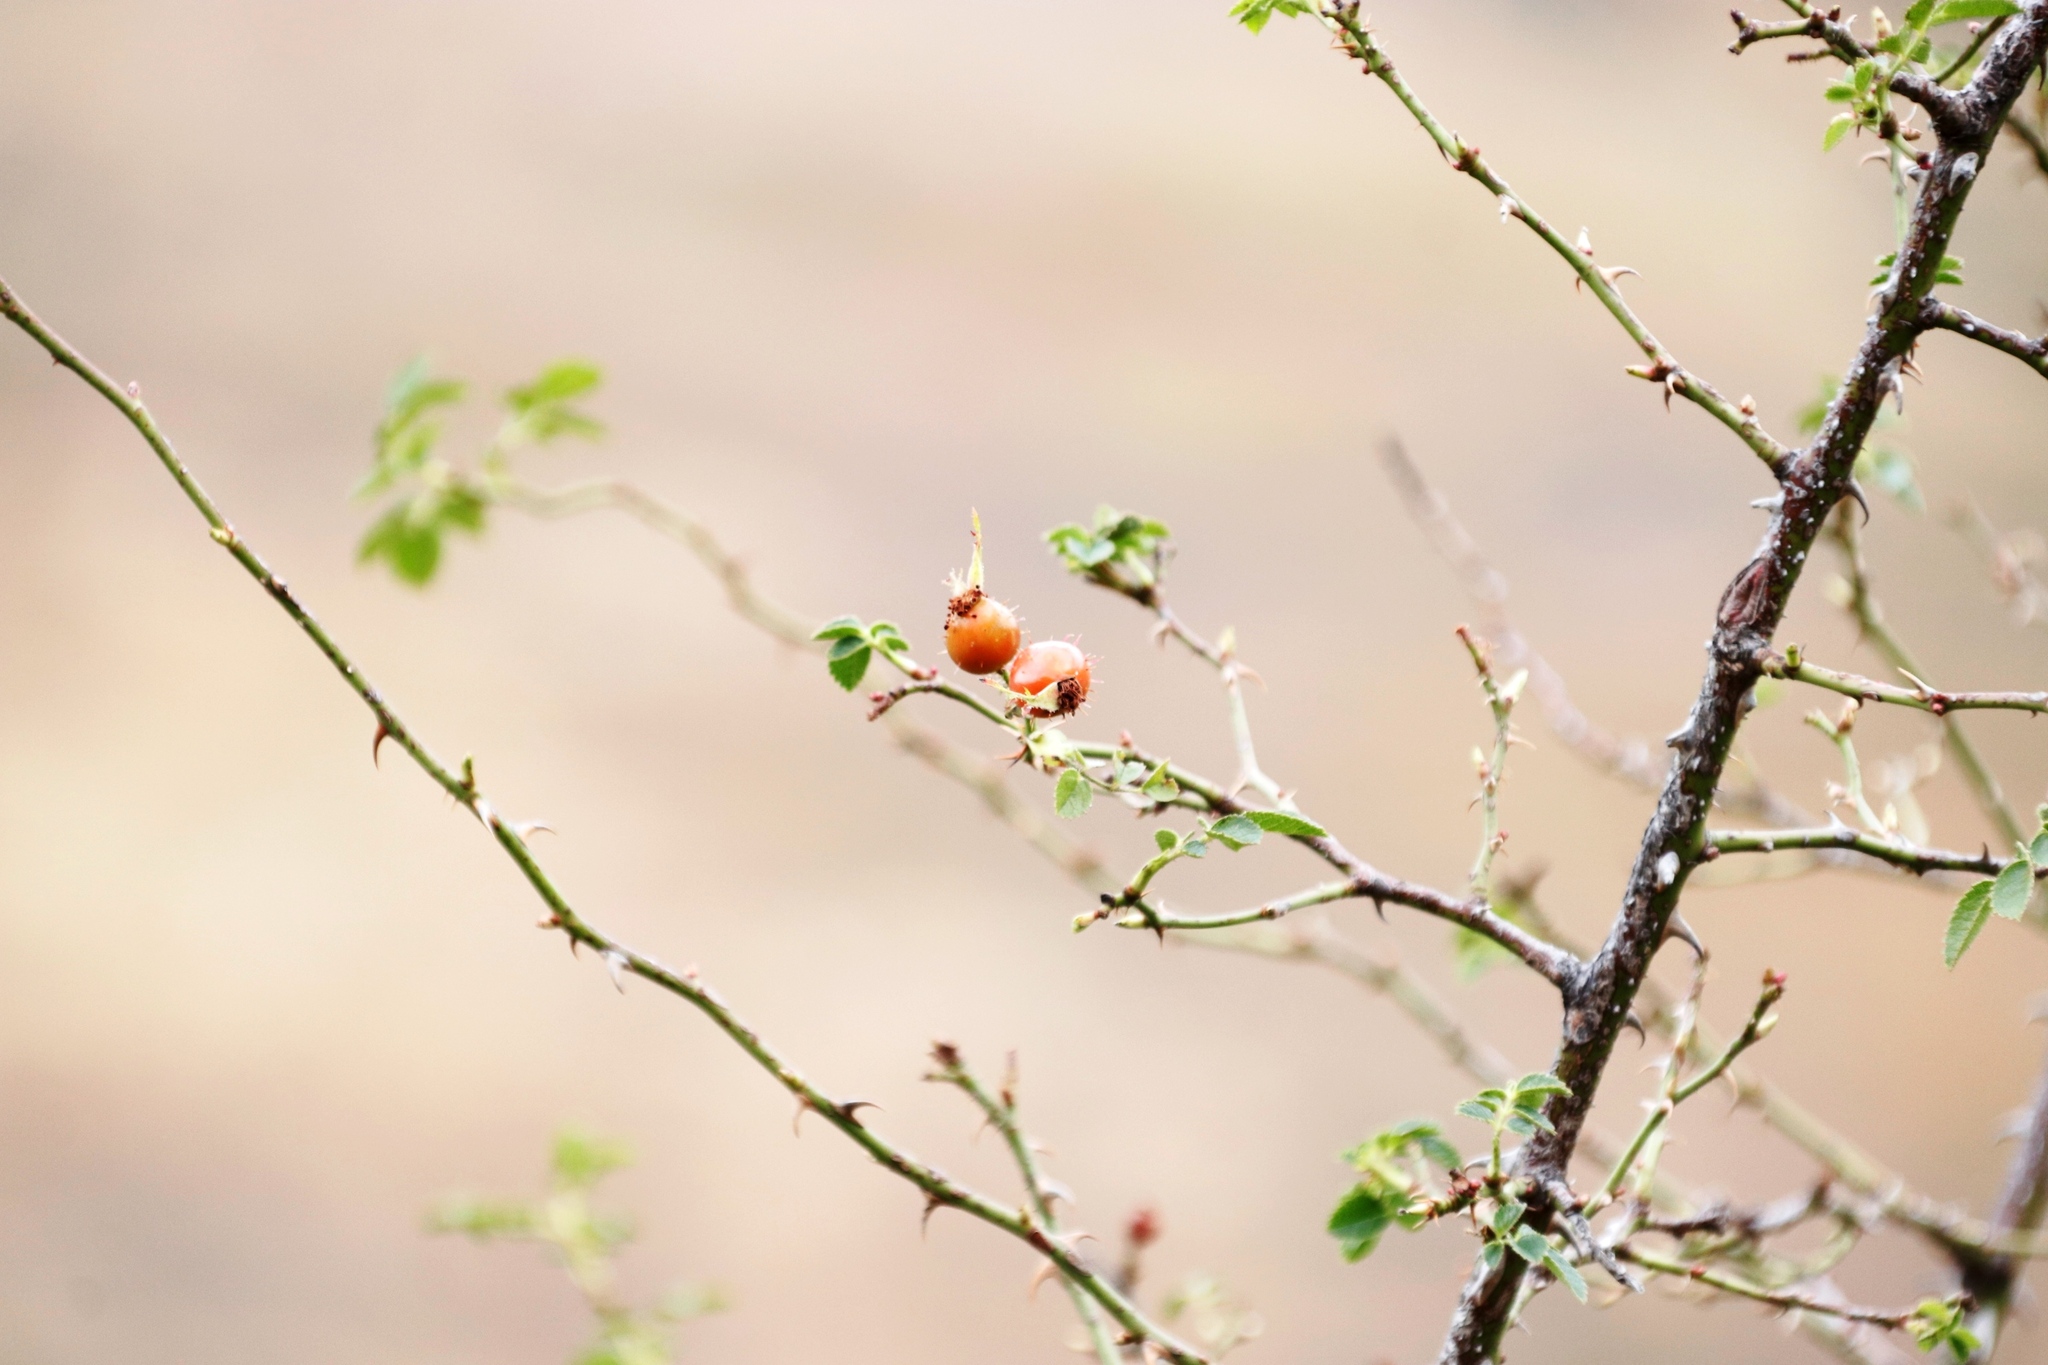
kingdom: Plantae
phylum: Tracheophyta
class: Magnoliopsida
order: Rosales
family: Rosaceae
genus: Rosa
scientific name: Rosa rubiginosa
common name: Sweet-briar
